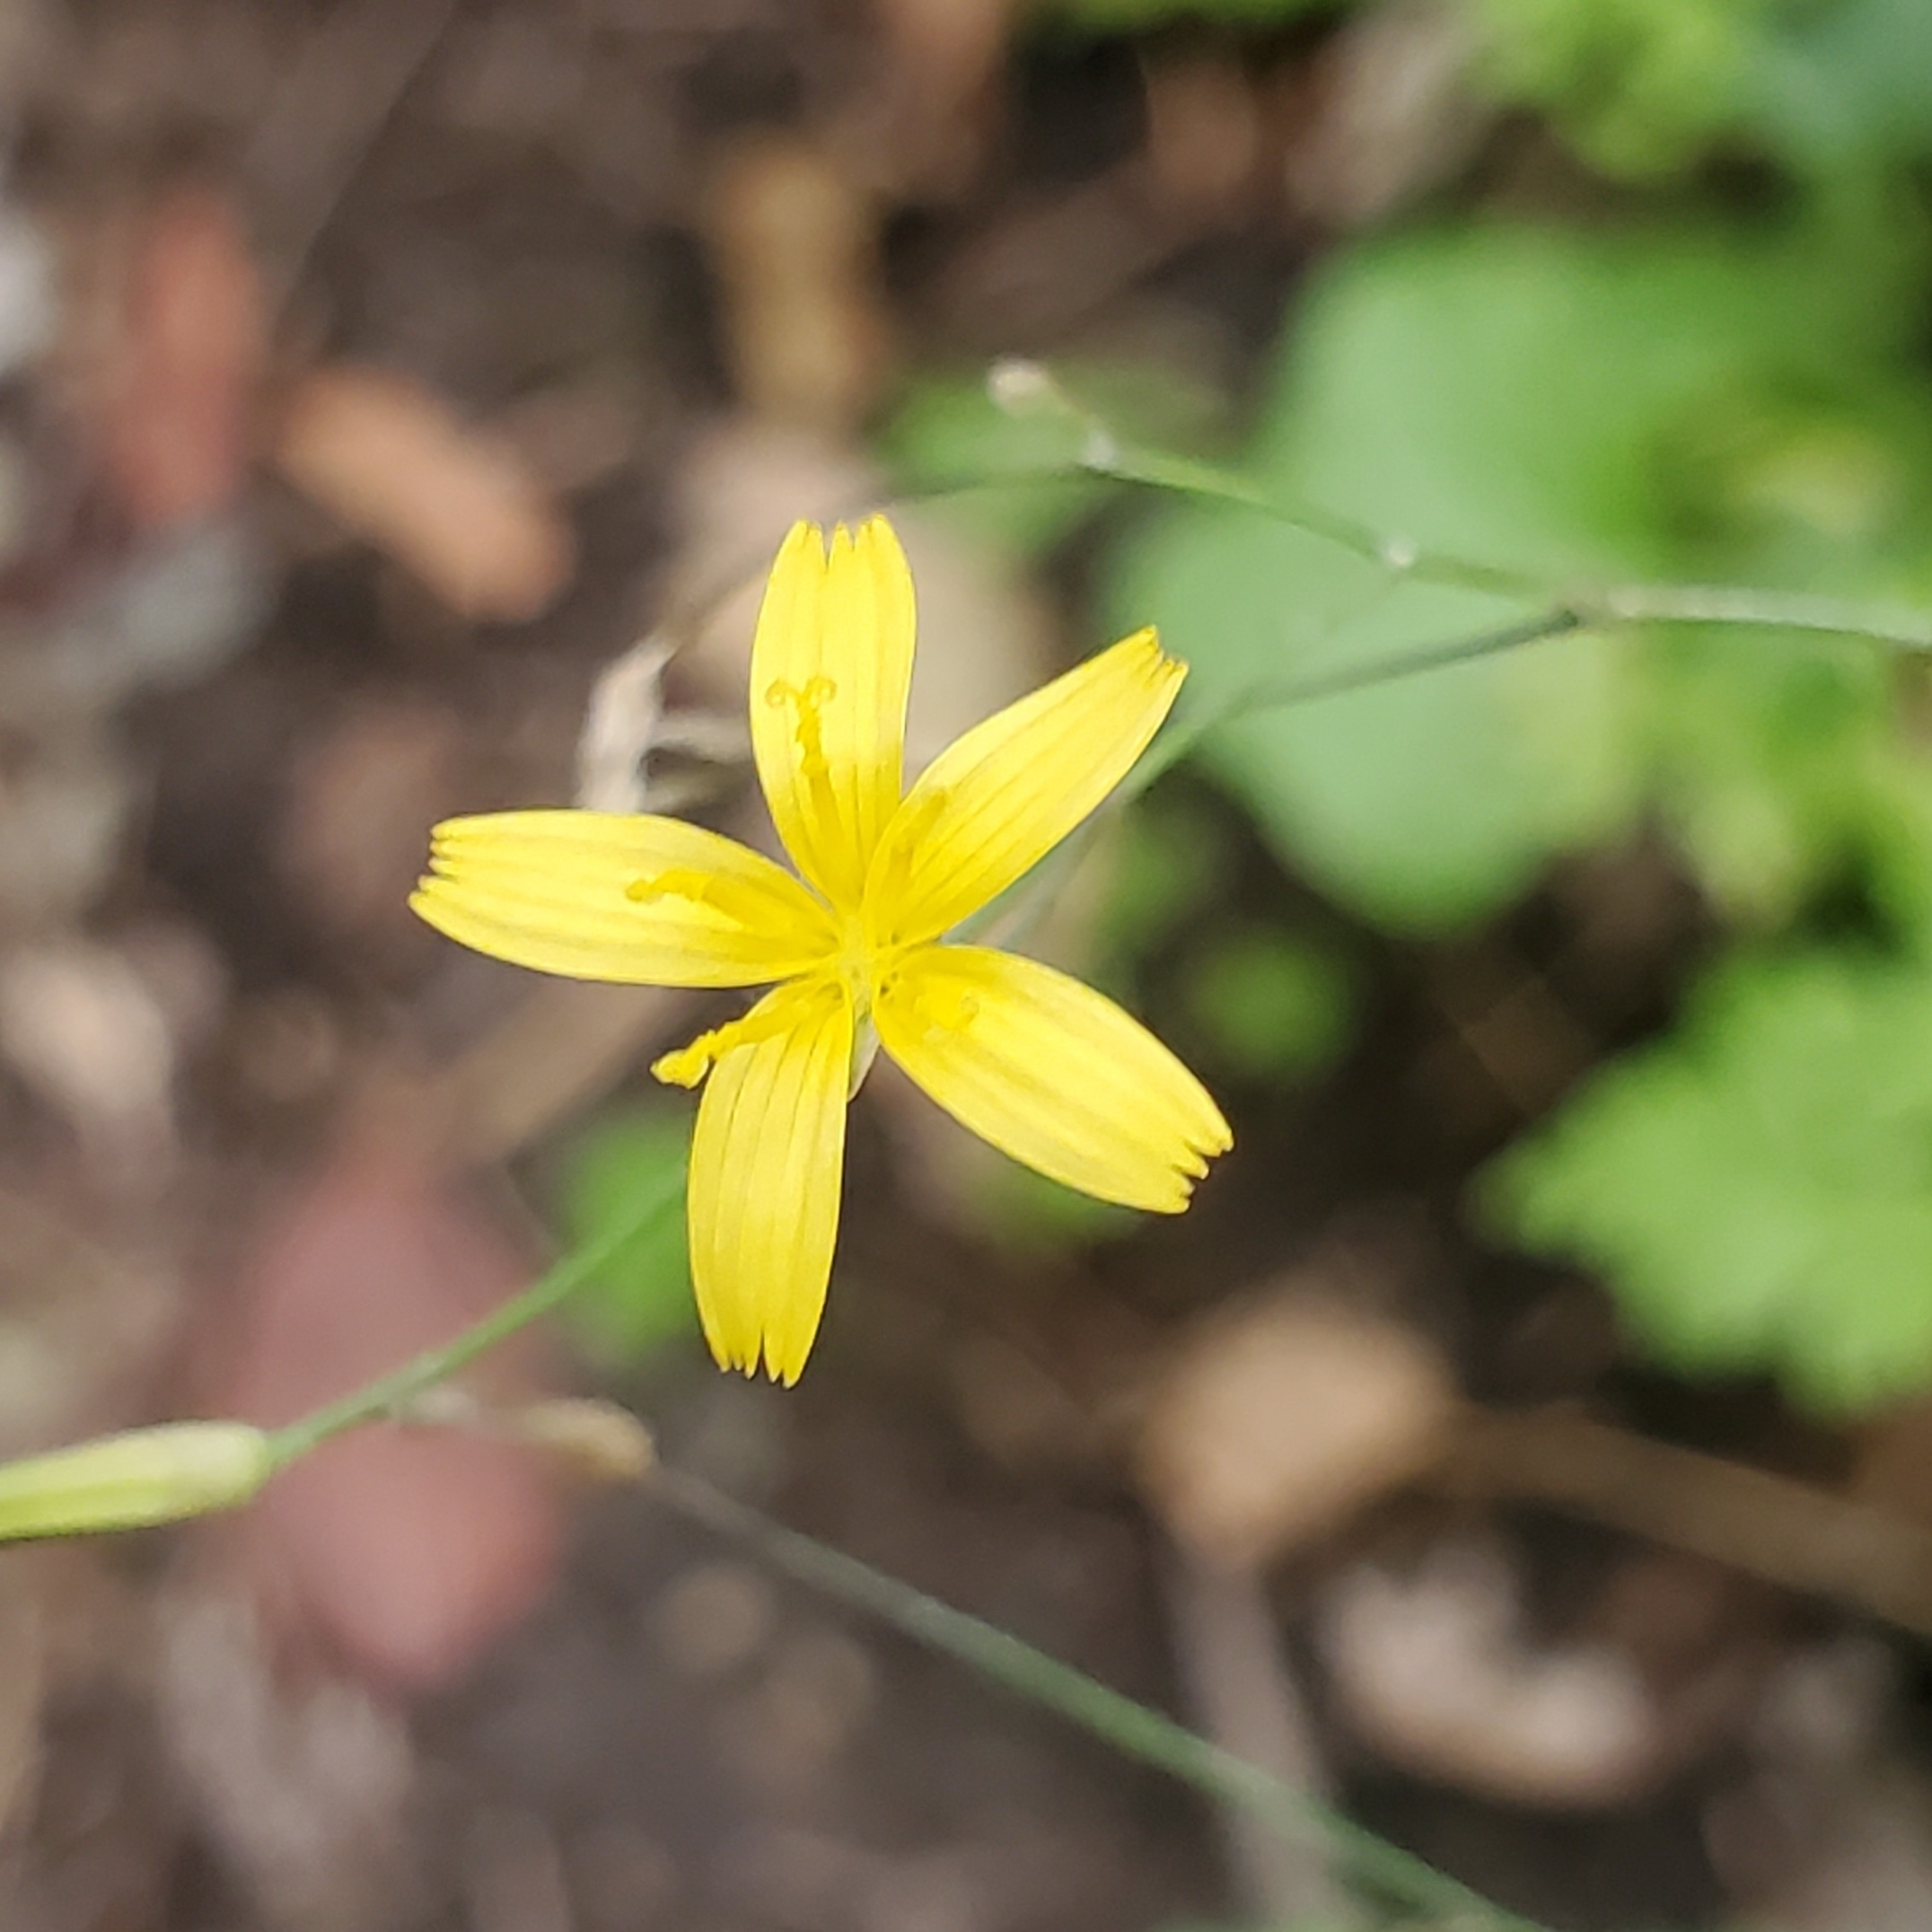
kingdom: Plantae
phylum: Tracheophyta
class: Magnoliopsida
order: Asterales
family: Asteraceae
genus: Mycelis
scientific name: Mycelis muralis
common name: Wall lettuce
